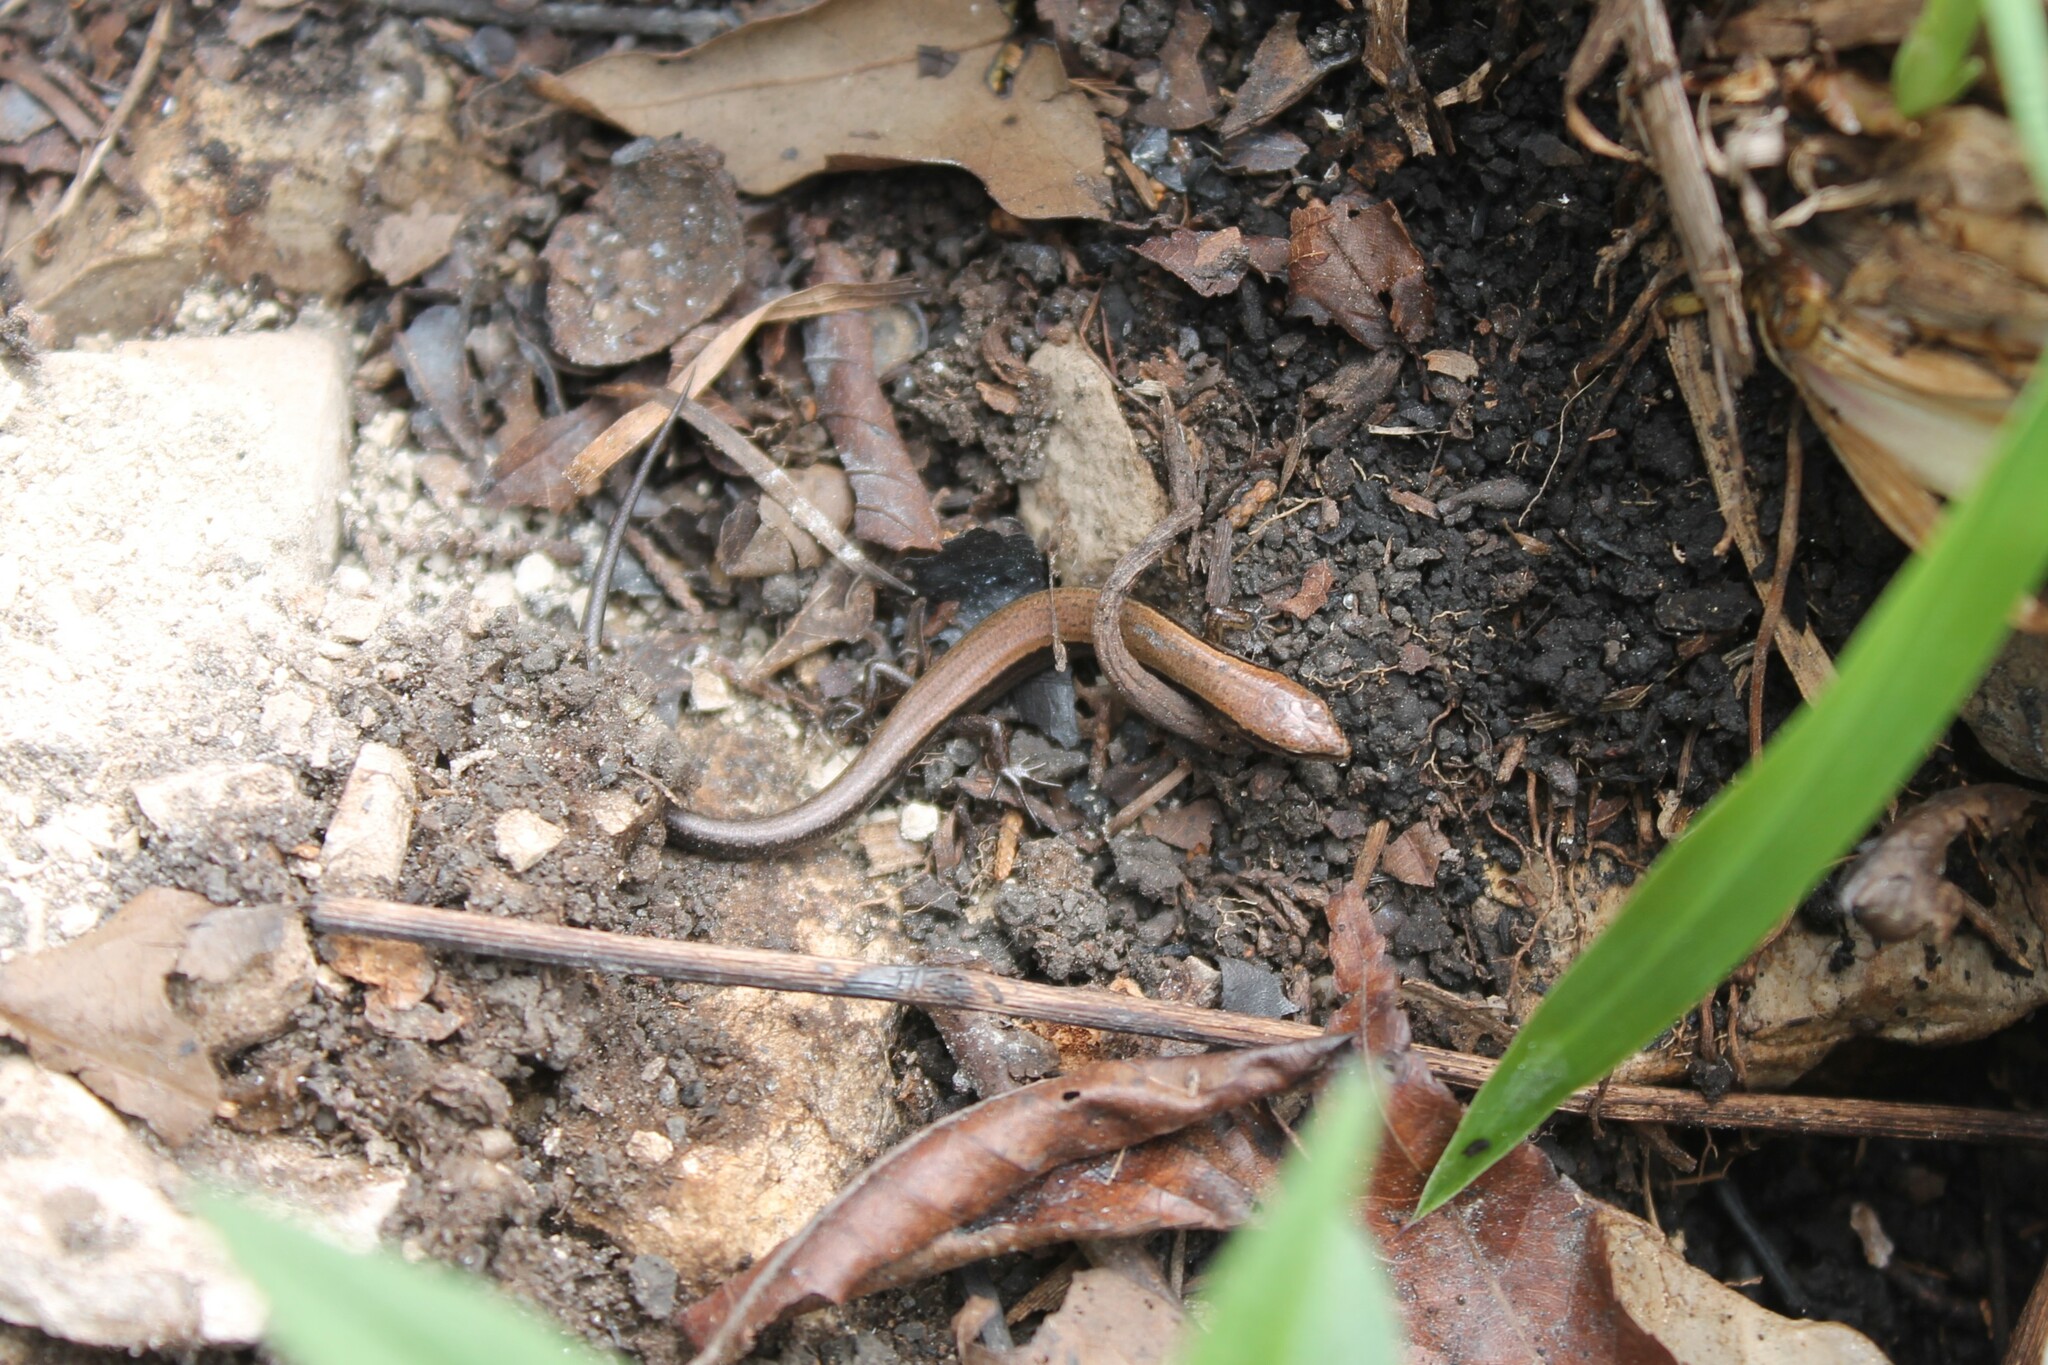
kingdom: Animalia
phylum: Chordata
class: Squamata
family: Scincidae
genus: Scincella
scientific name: Scincella lateralis
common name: Ground skink
